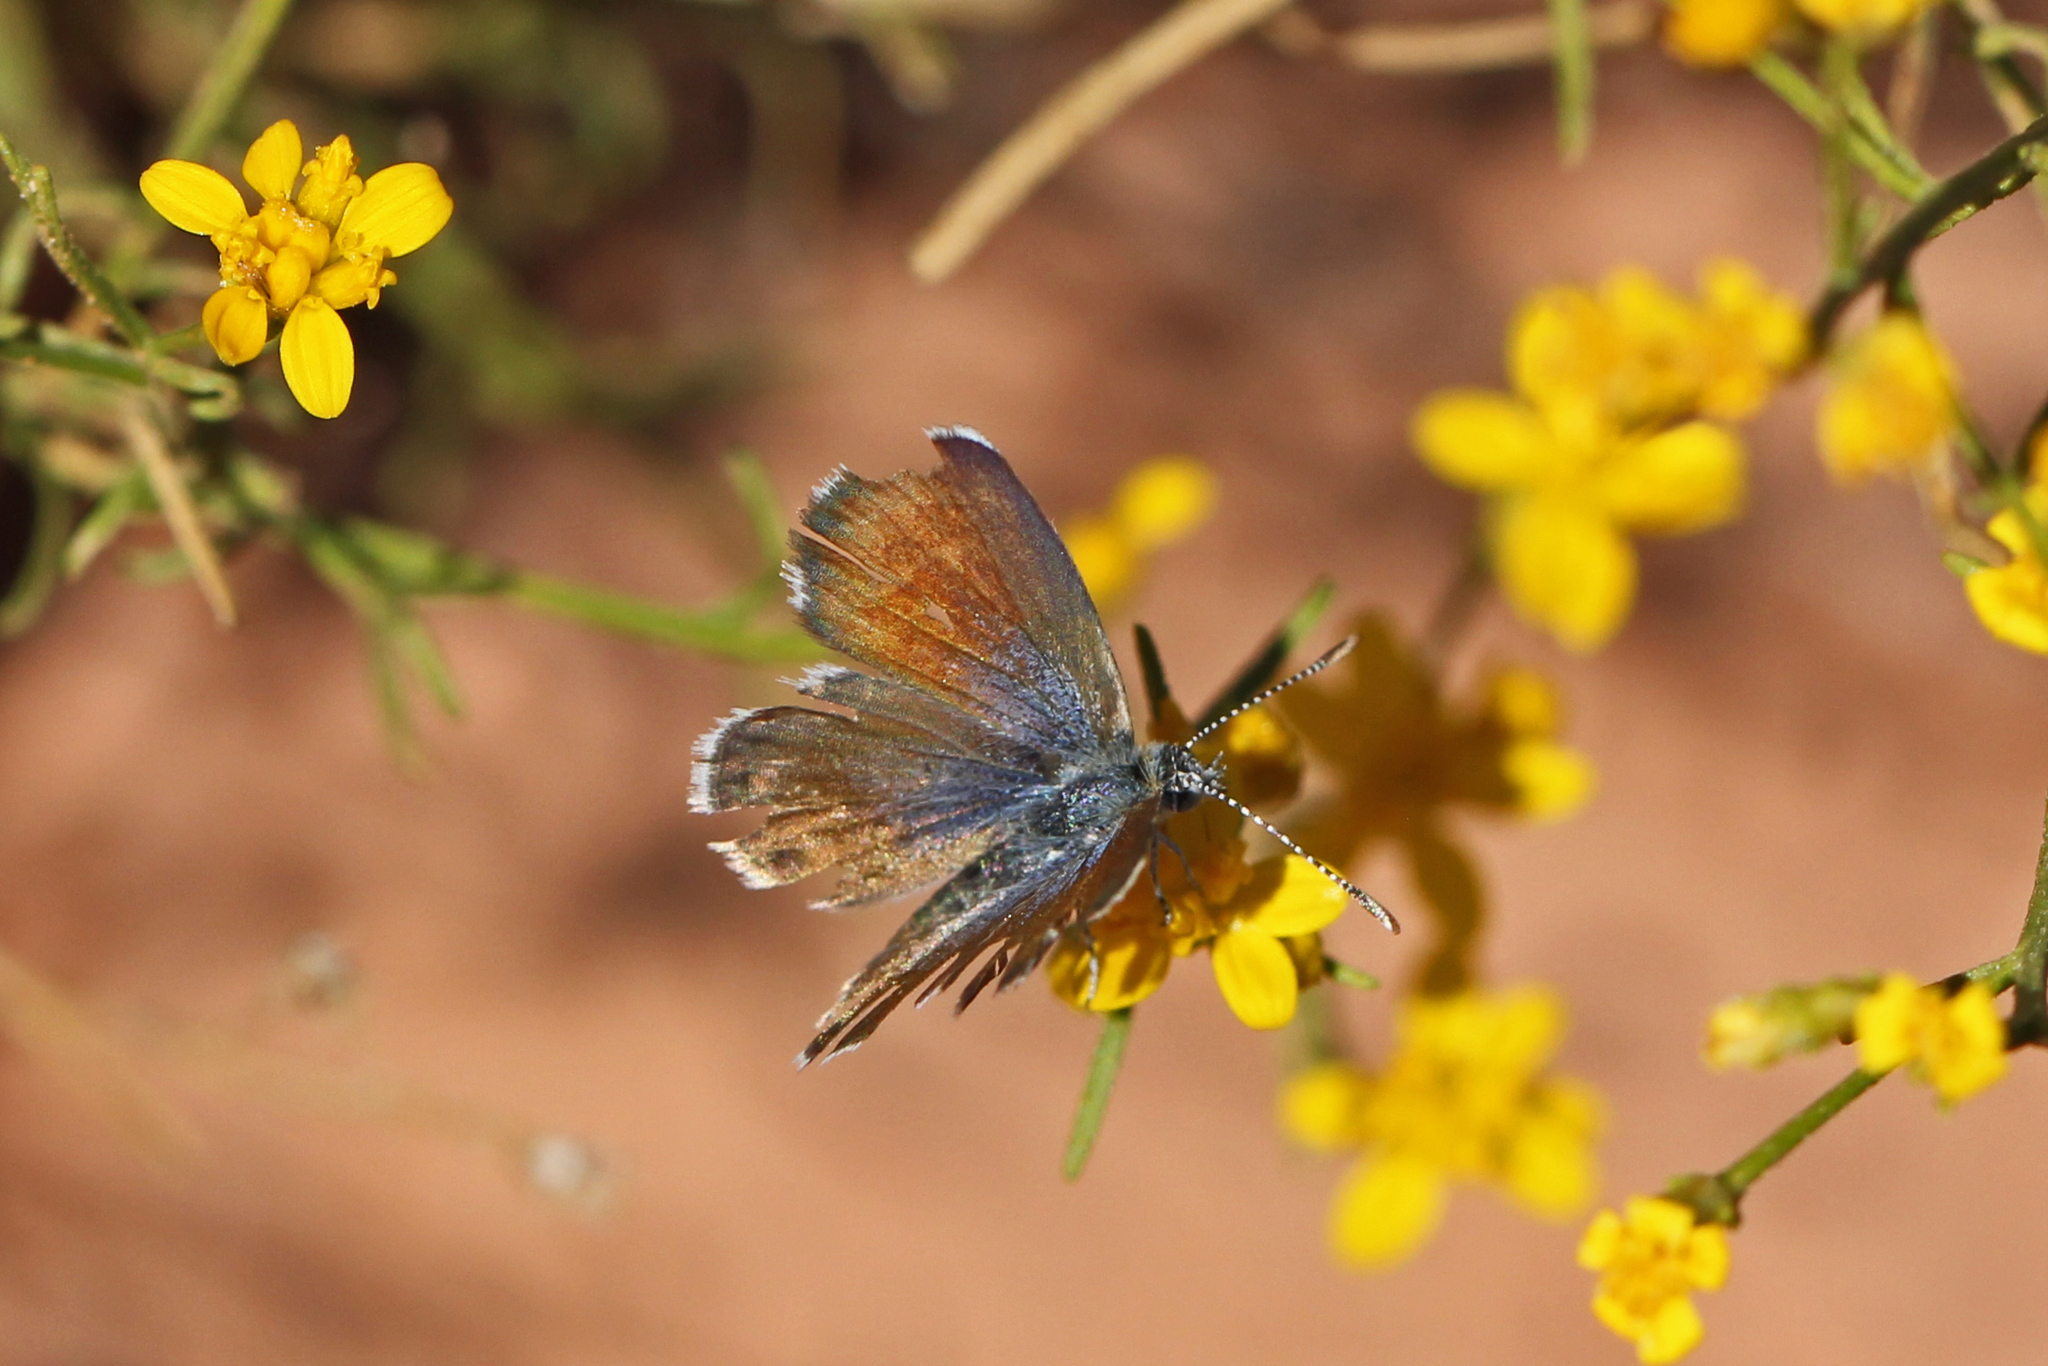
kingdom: Animalia
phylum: Arthropoda
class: Insecta
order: Lepidoptera
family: Lycaenidae
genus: Brephidium
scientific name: Brephidium exilis
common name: Pygmy blue
